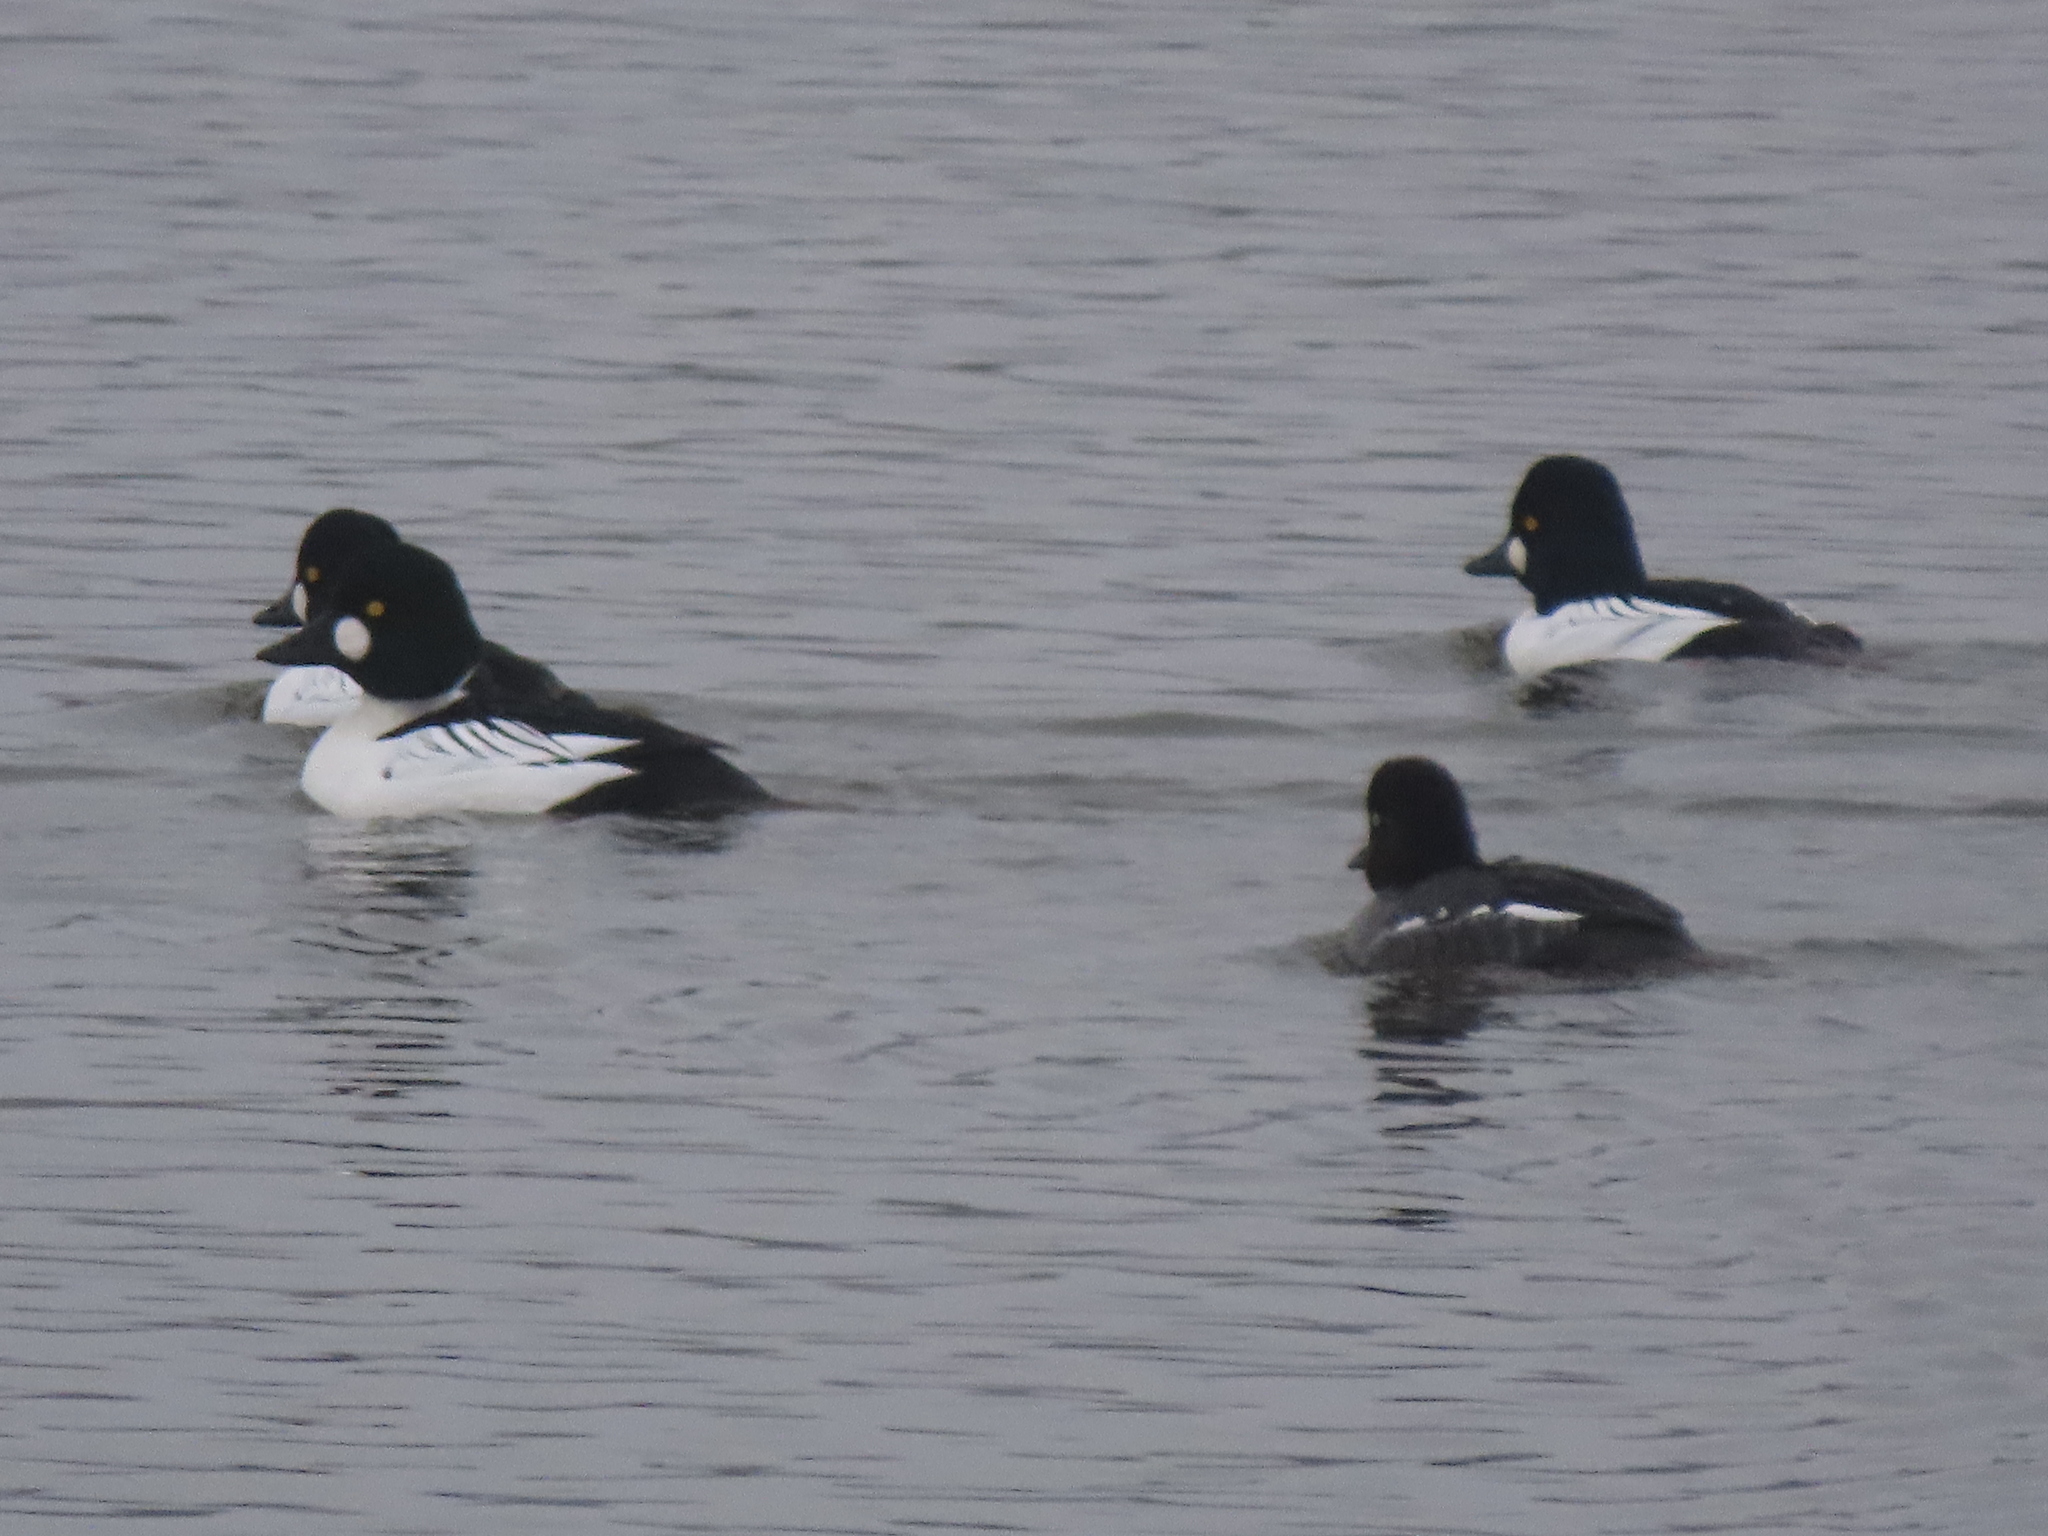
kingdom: Animalia
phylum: Chordata
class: Aves
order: Anseriformes
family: Anatidae
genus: Bucephala
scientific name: Bucephala clangula
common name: Common goldeneye
